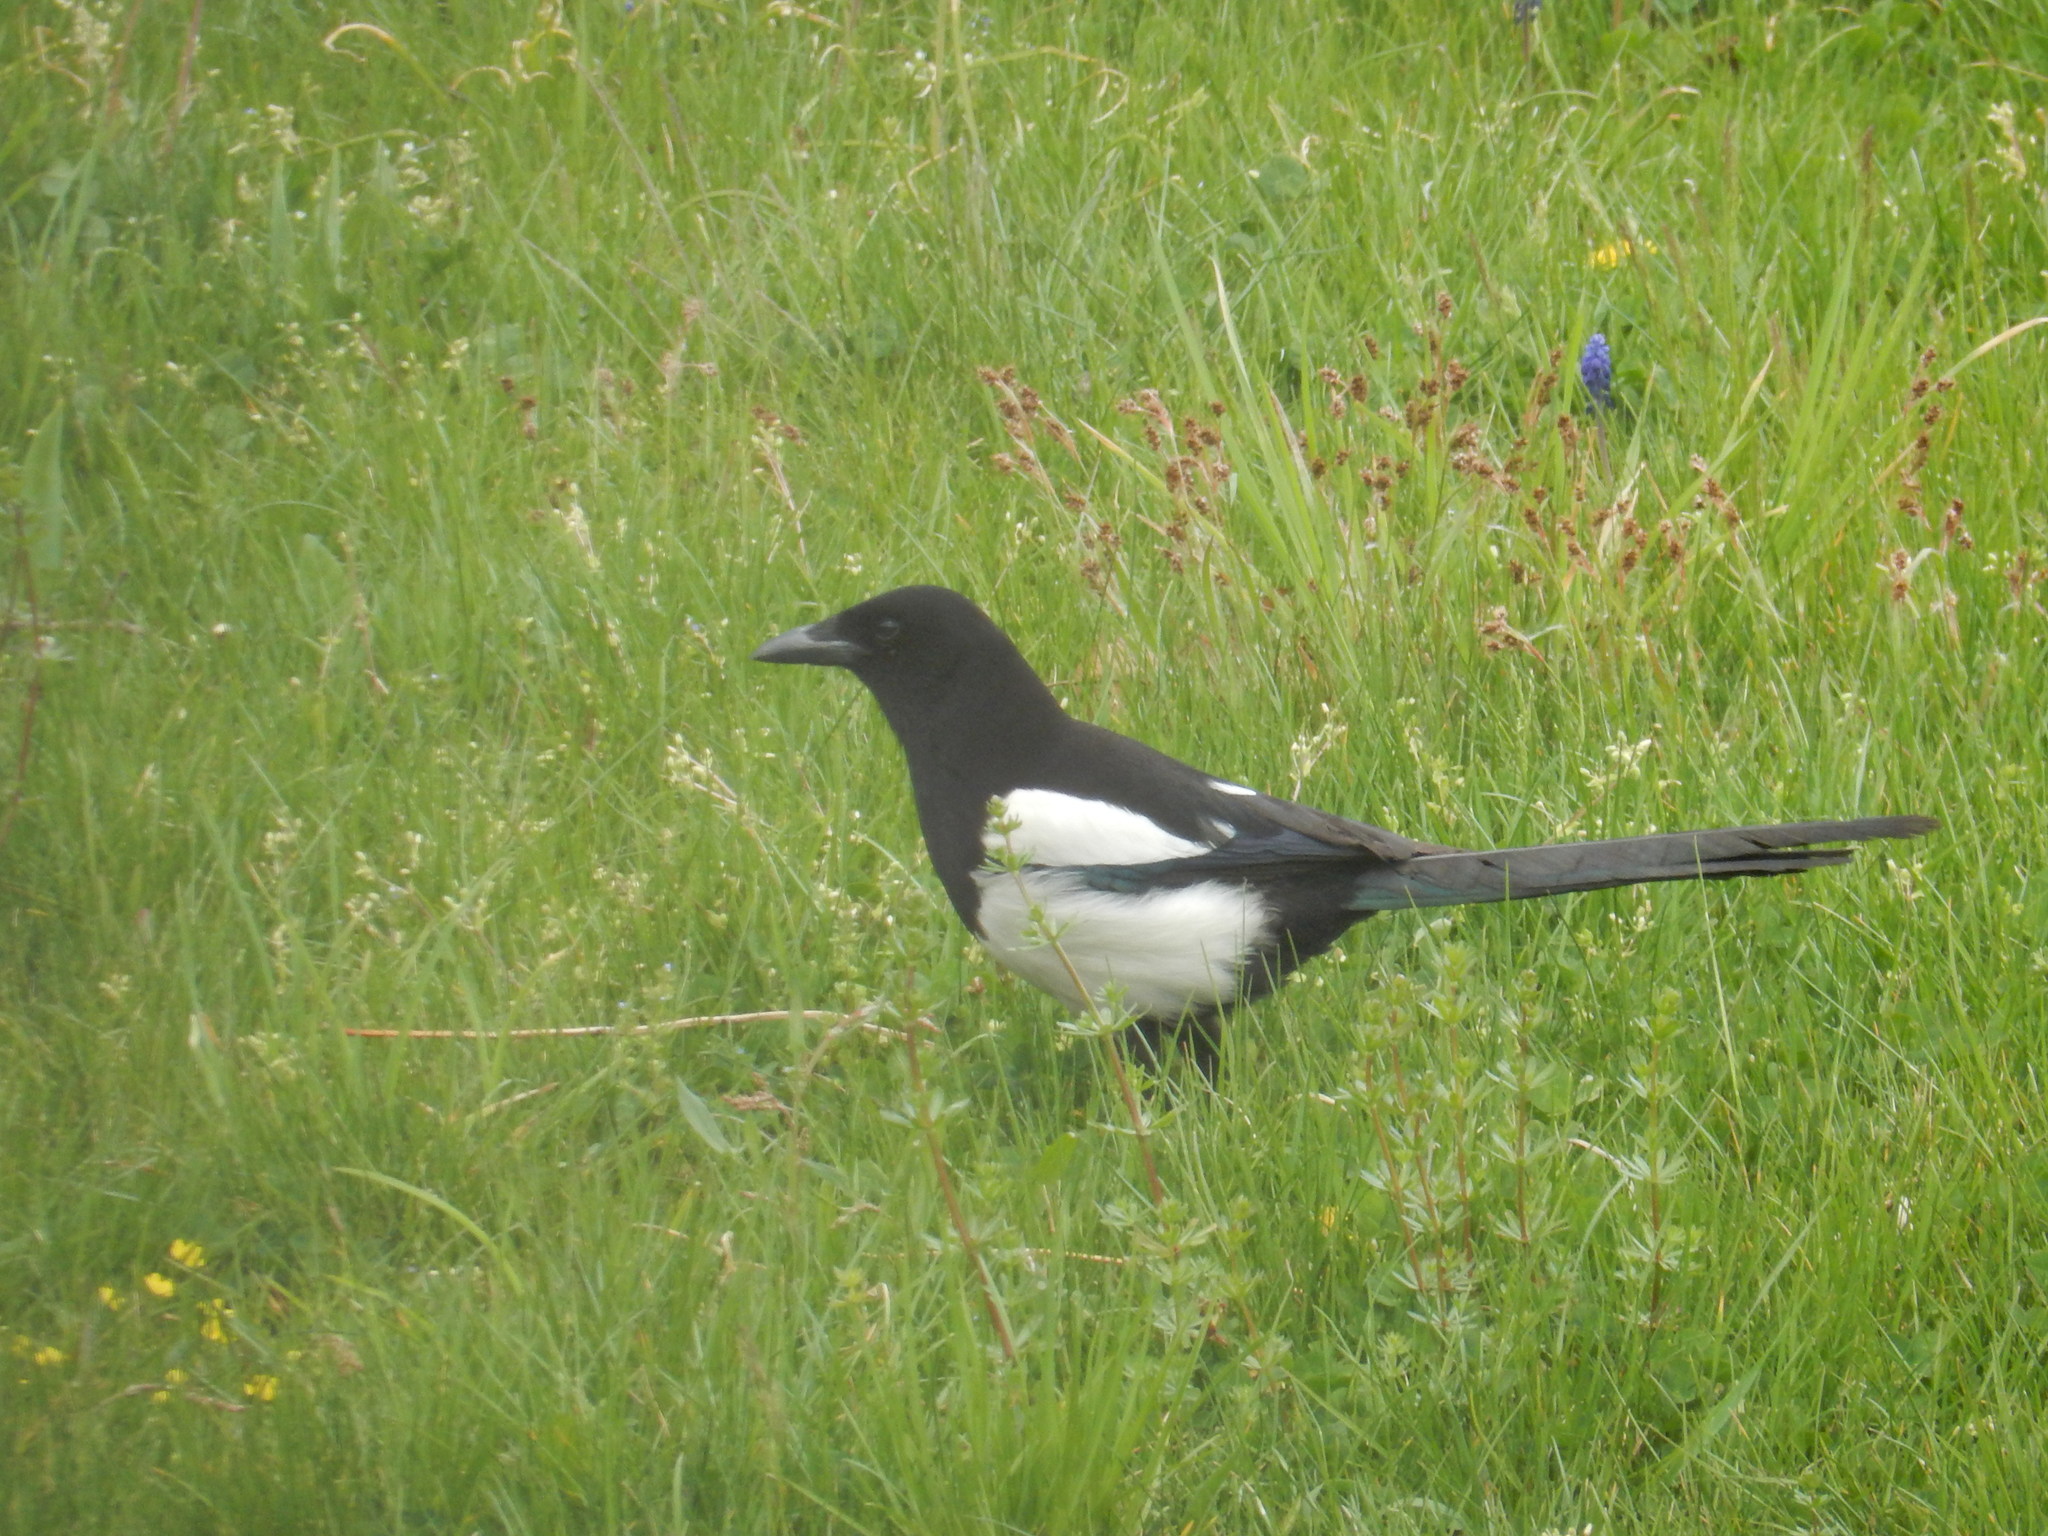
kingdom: Animalia
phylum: Chordata
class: Aves
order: Passeriformes
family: Corvidae
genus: Pica
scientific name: Pica pica
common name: Eurasian magpie
